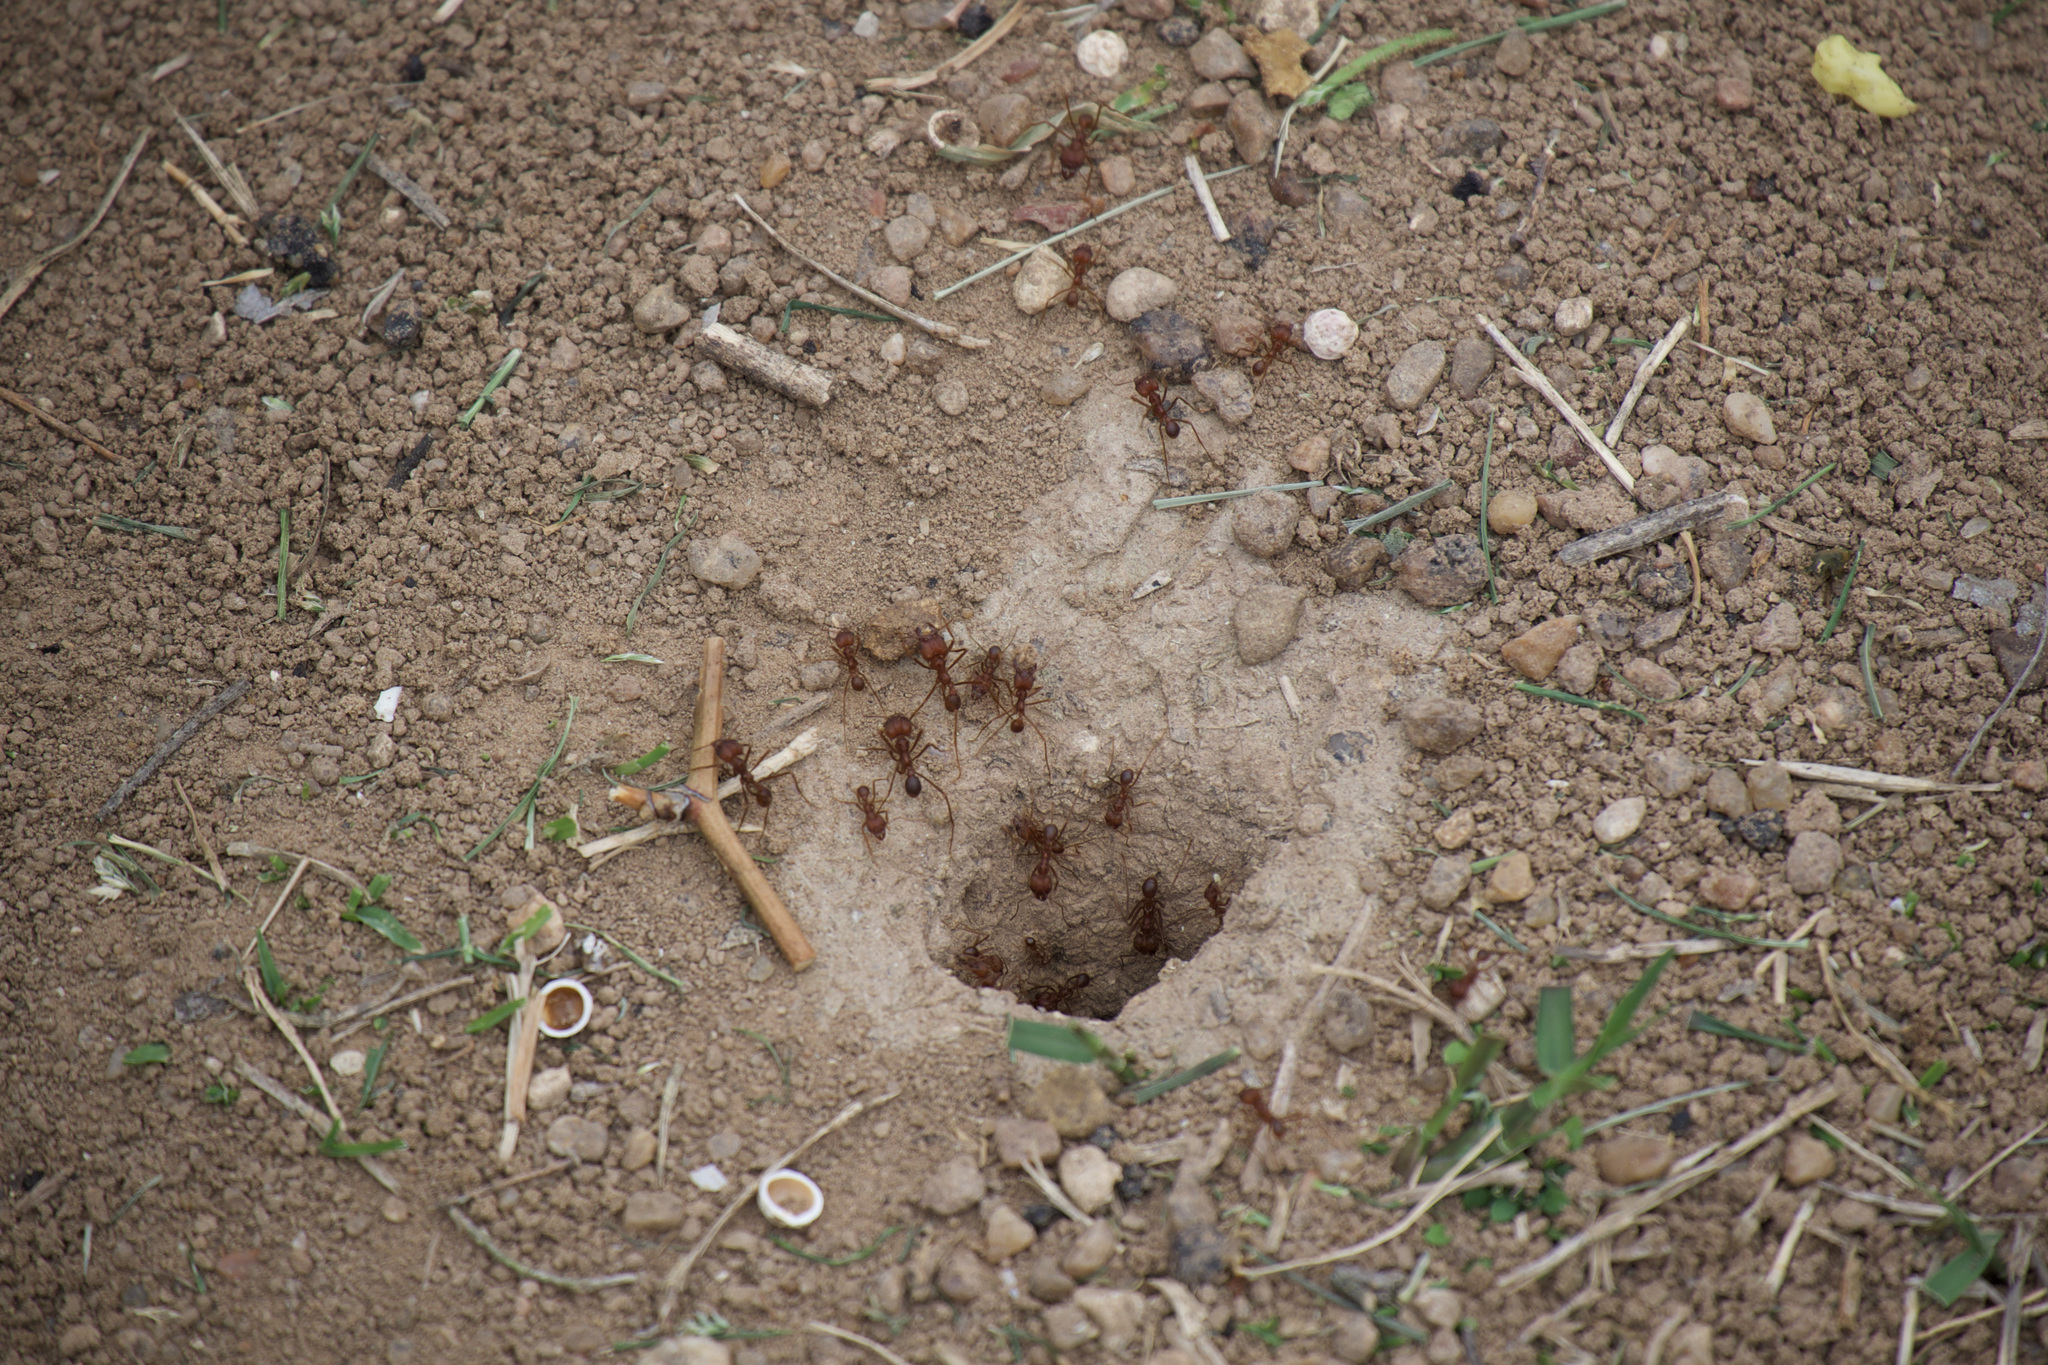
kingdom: Animalia
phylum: Arthropoda
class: Insecta
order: Hymenoptera
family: Formicidae
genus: Atta
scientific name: Atta texana
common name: Texas leafcutting ant
